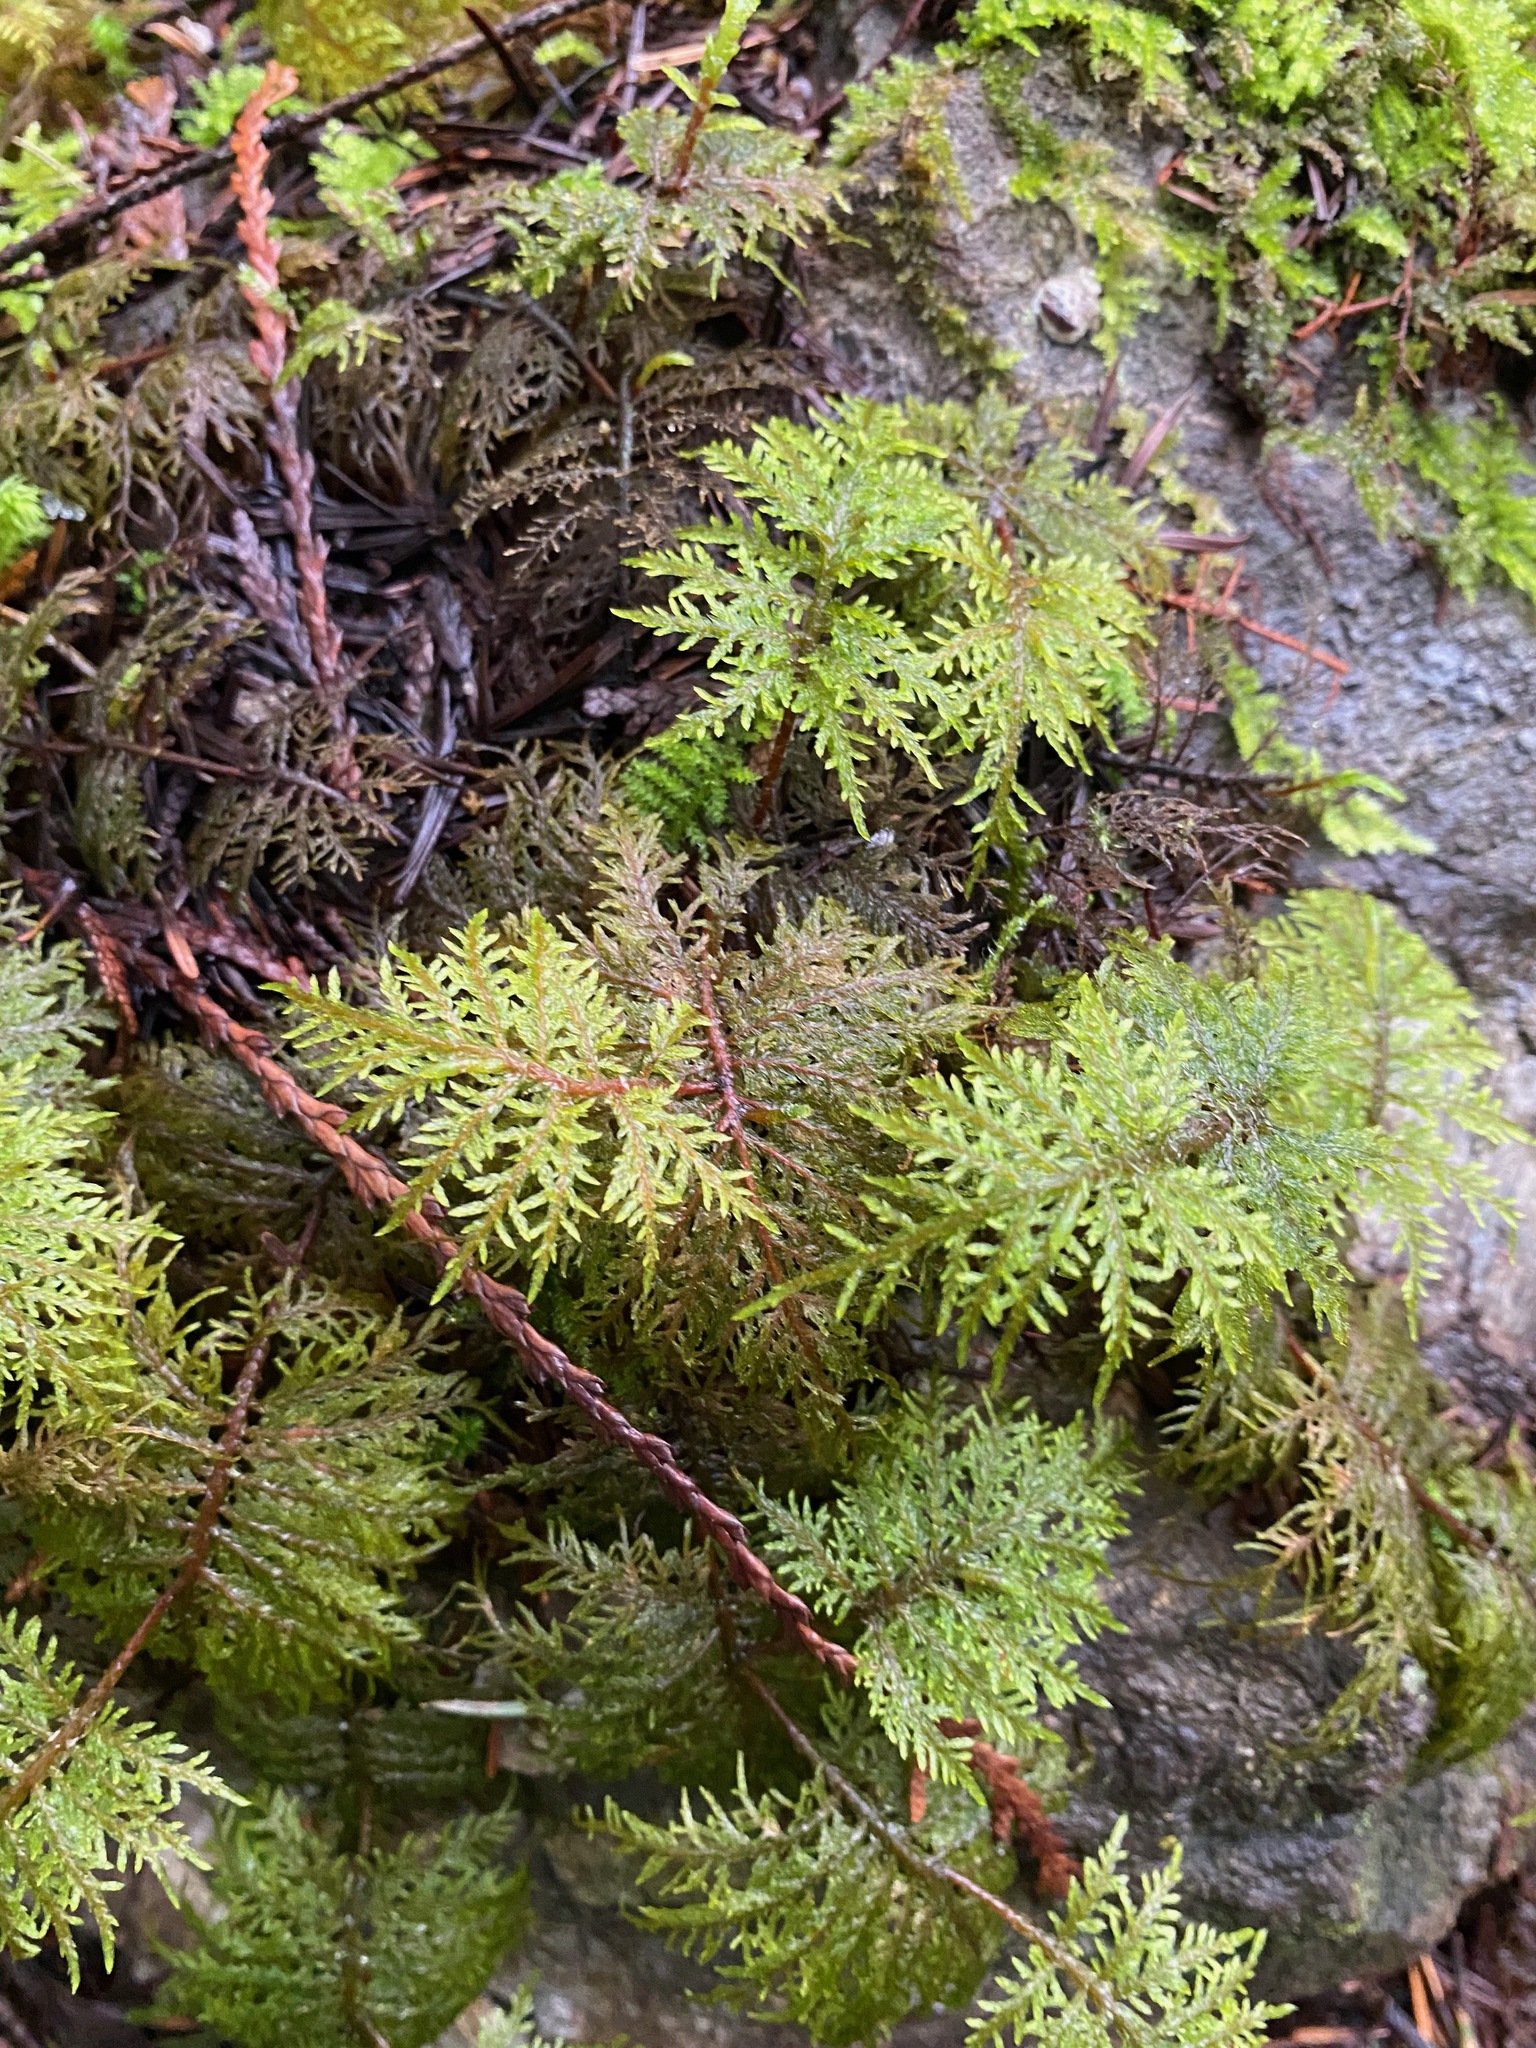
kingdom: Plantae
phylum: Bryophyta
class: Bryopsida
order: Hypnales
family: Hylocomiaceae
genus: Hylocomium
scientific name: Hylocomium splendens
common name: Stairstep moss
